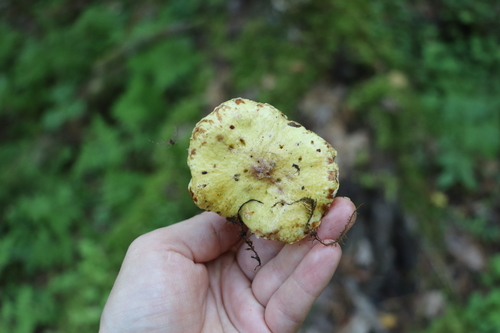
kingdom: Fungi
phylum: Basidiomycota
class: Agaricomycetes
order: Boletales
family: Suillaceae
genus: Suillus
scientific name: Suillus americanus
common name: Chicken fat mushroom
